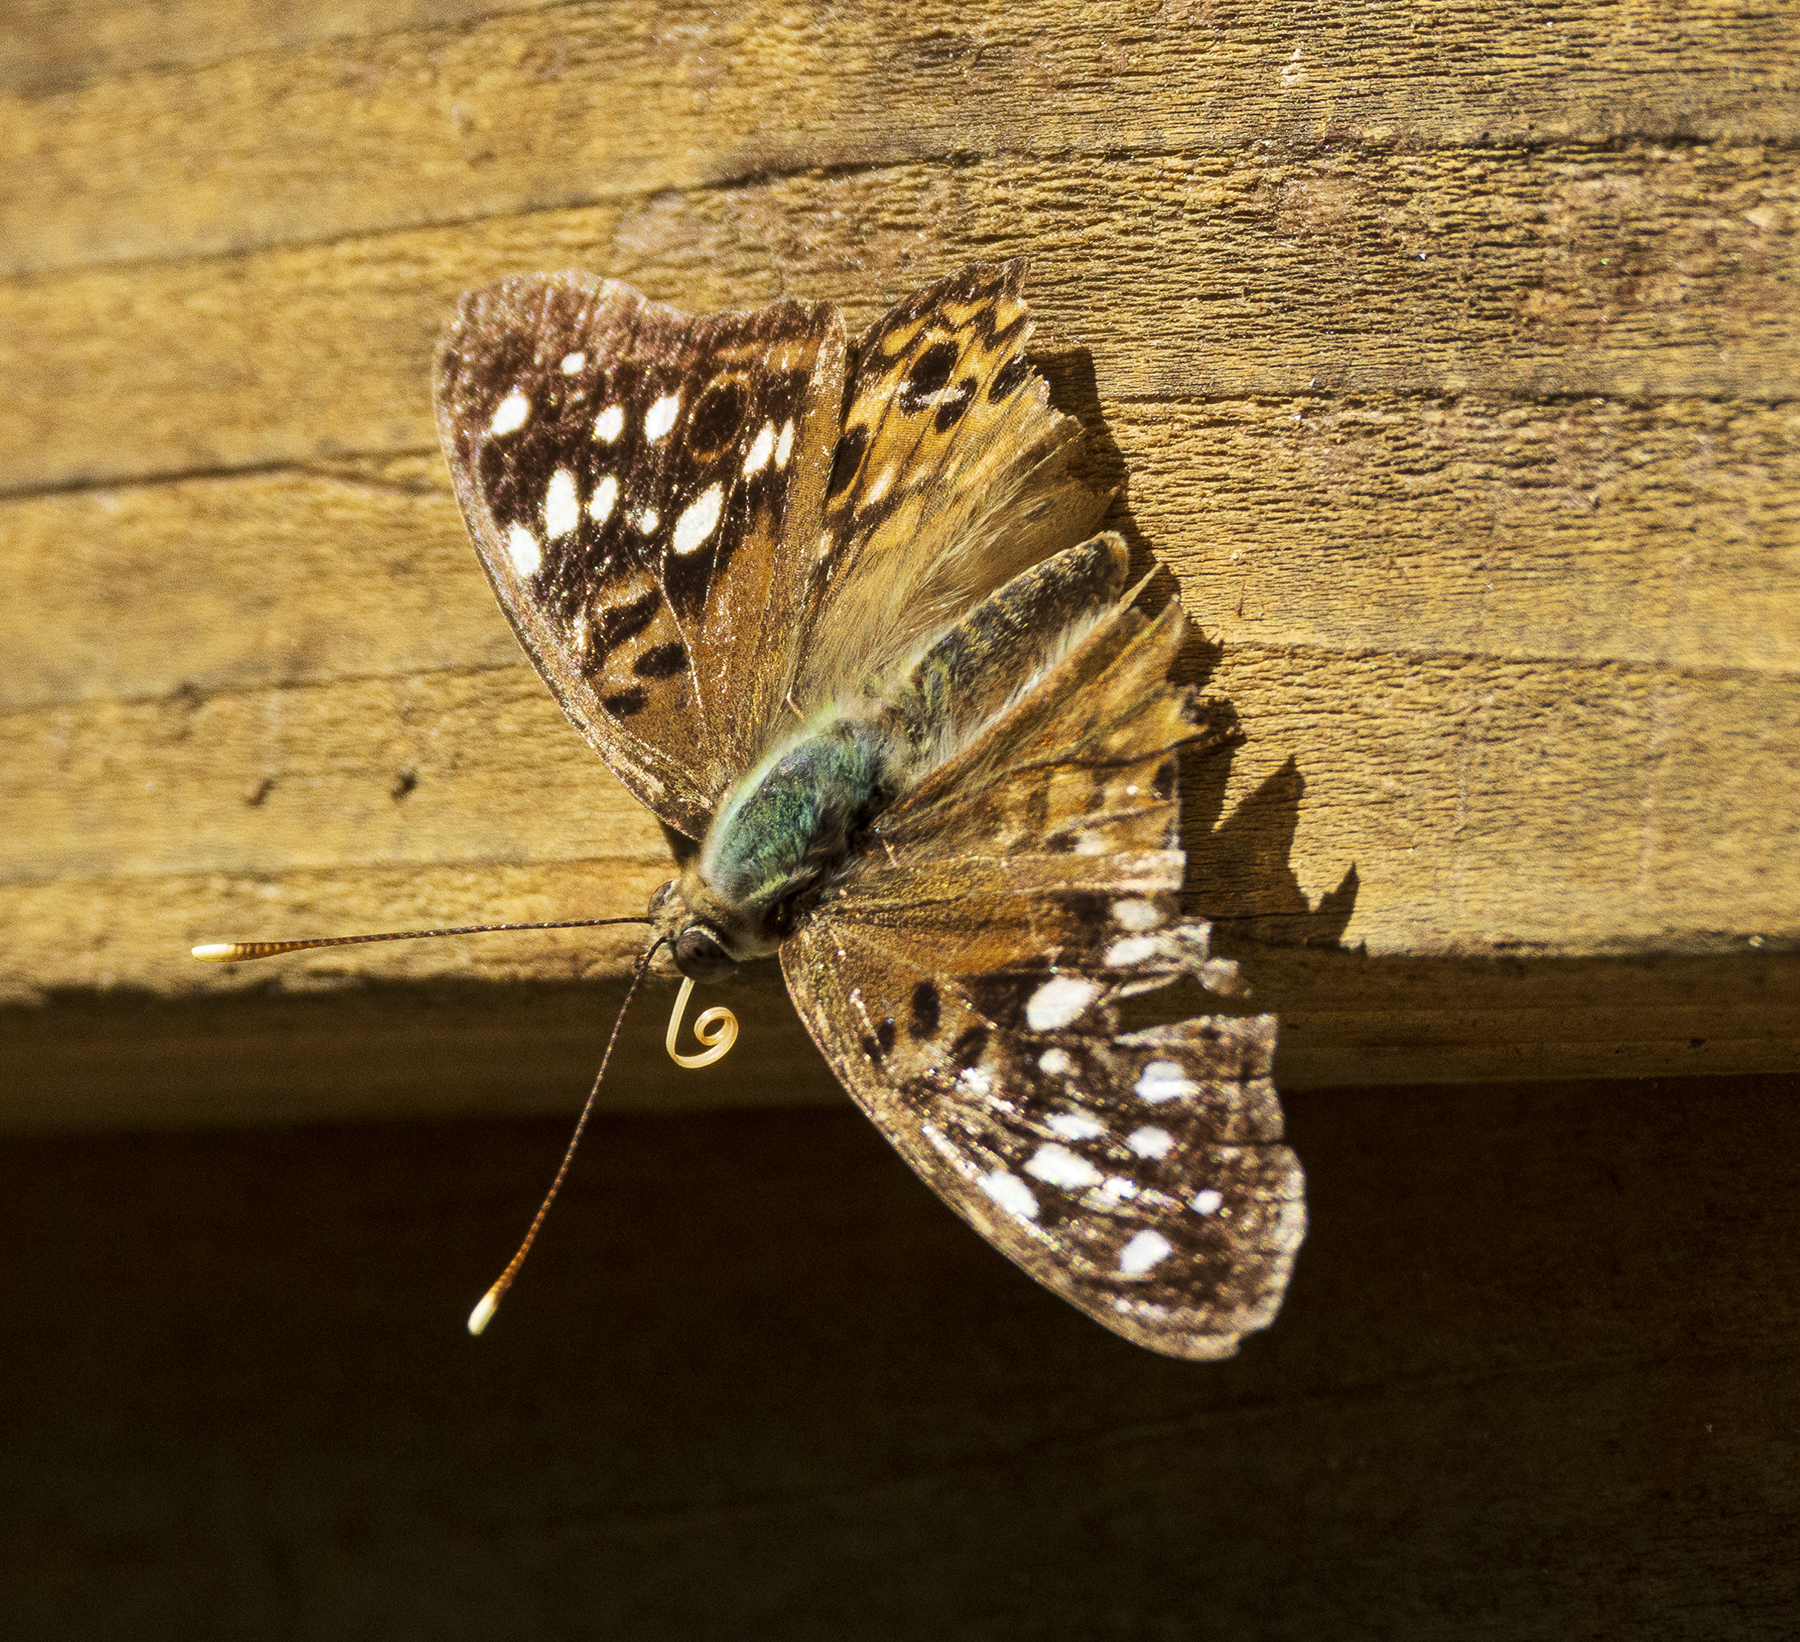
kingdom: Animalia
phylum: Arthropoda
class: Insecta
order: Lepidoptera
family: Nymphalidae
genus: Asterocampa
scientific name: Asterocampa celtis
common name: Hackberry emperor
